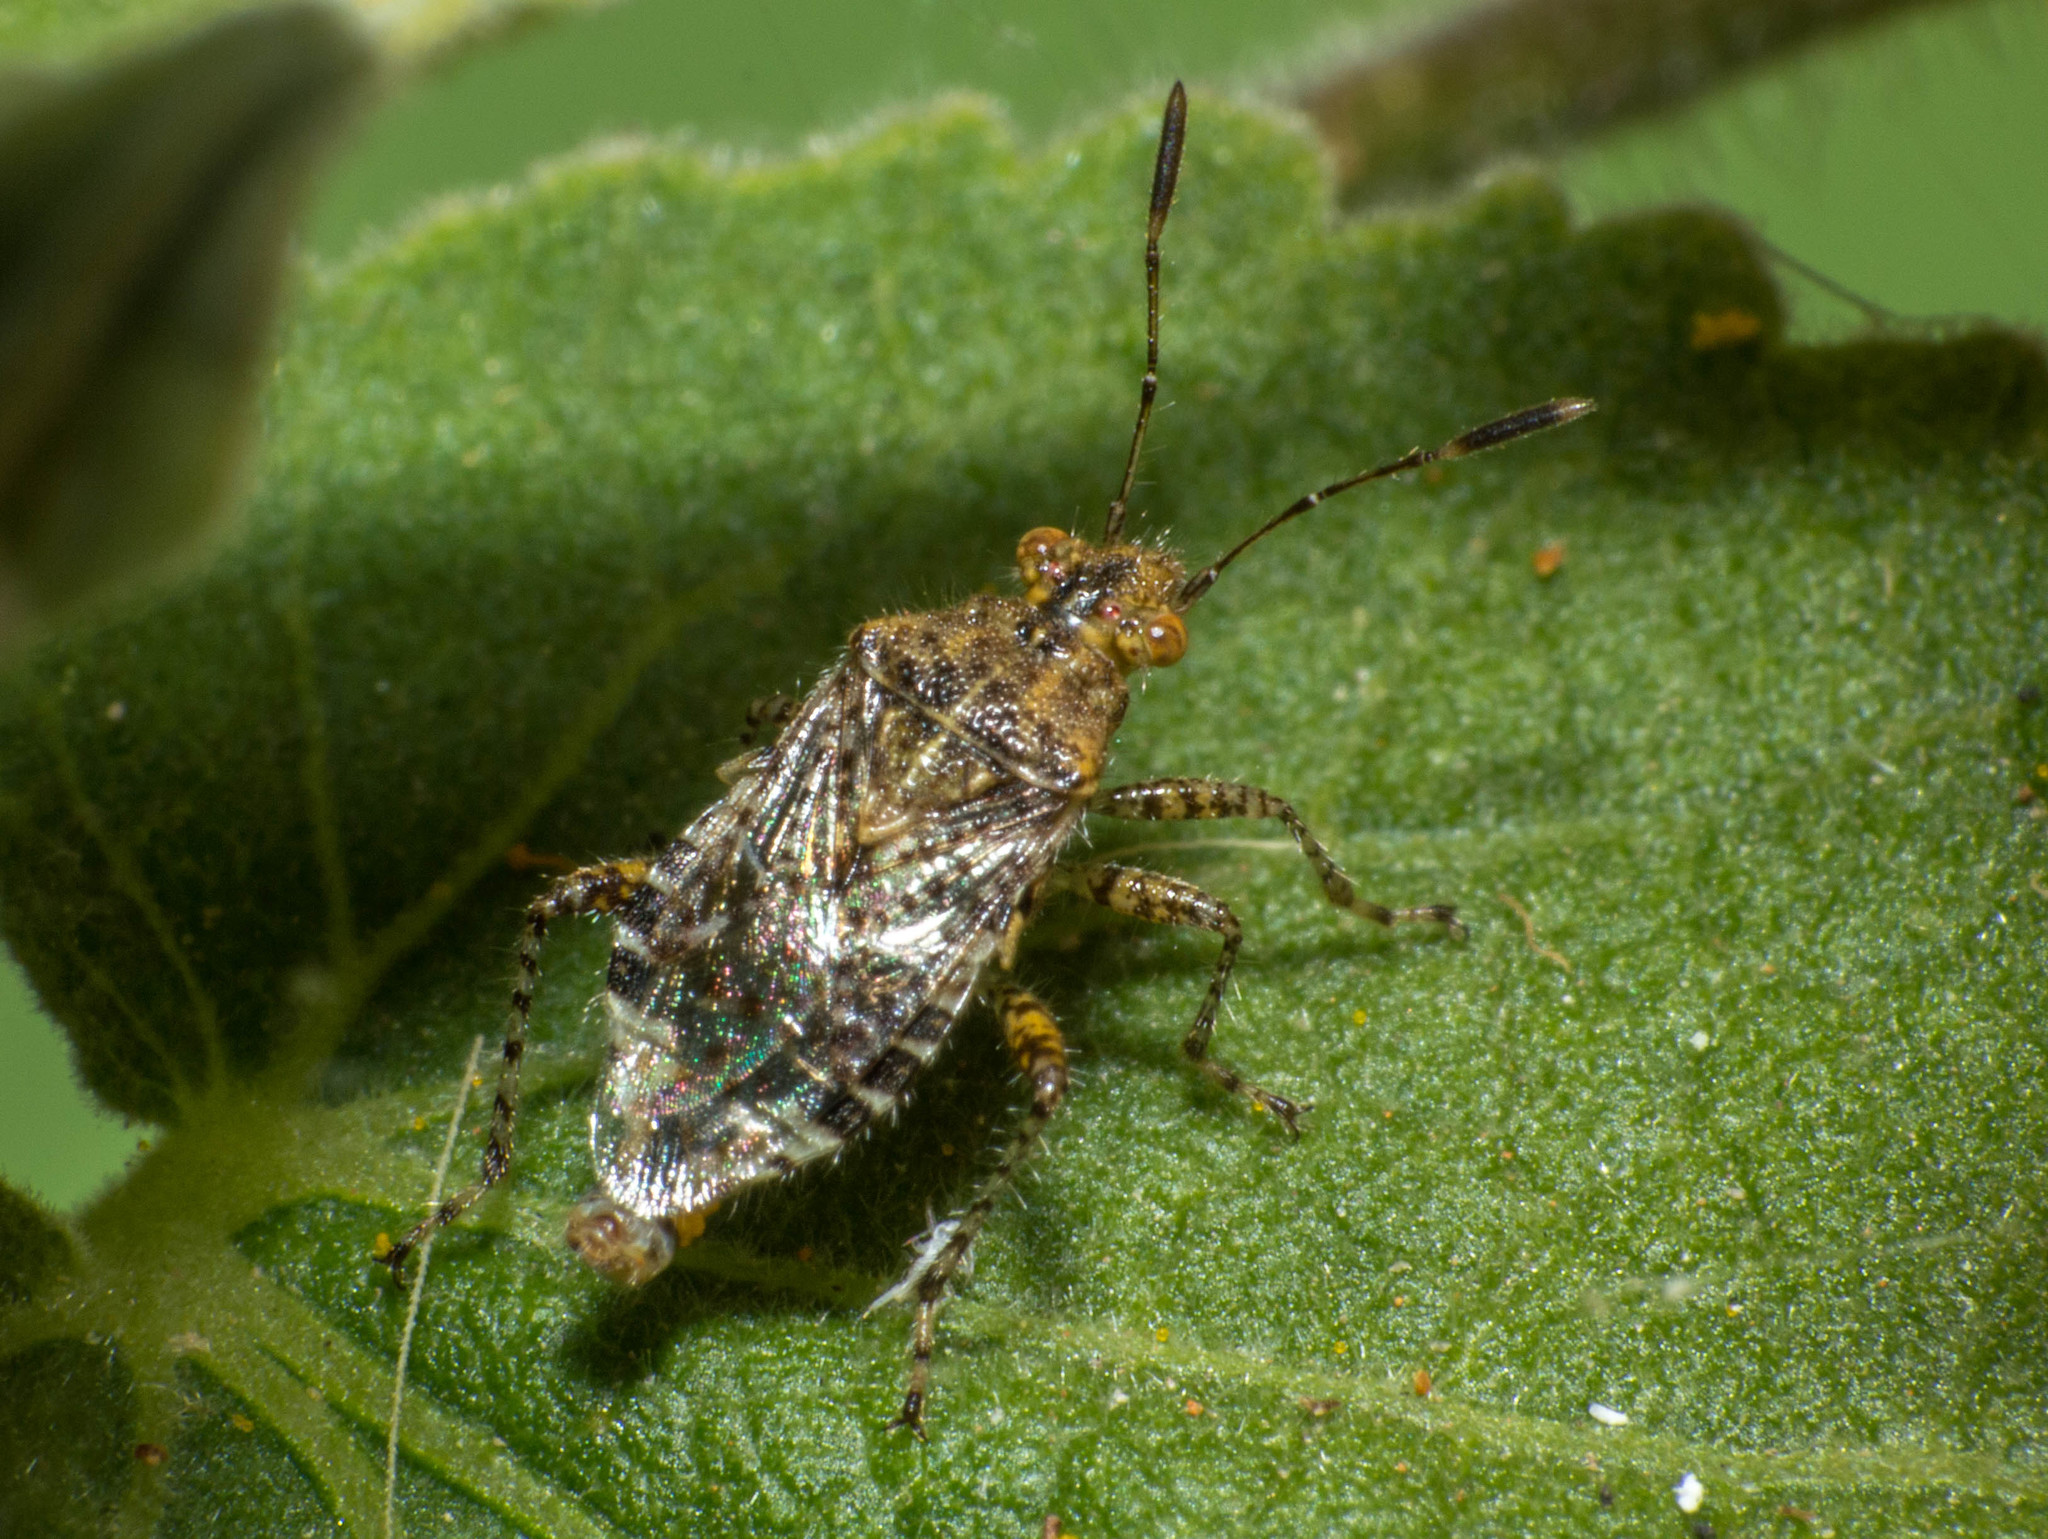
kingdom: Animalia
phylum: Arthropoda
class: Insecta
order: Hemiptera
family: Rhopalidae
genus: Niesthrea
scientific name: Niesthrea
